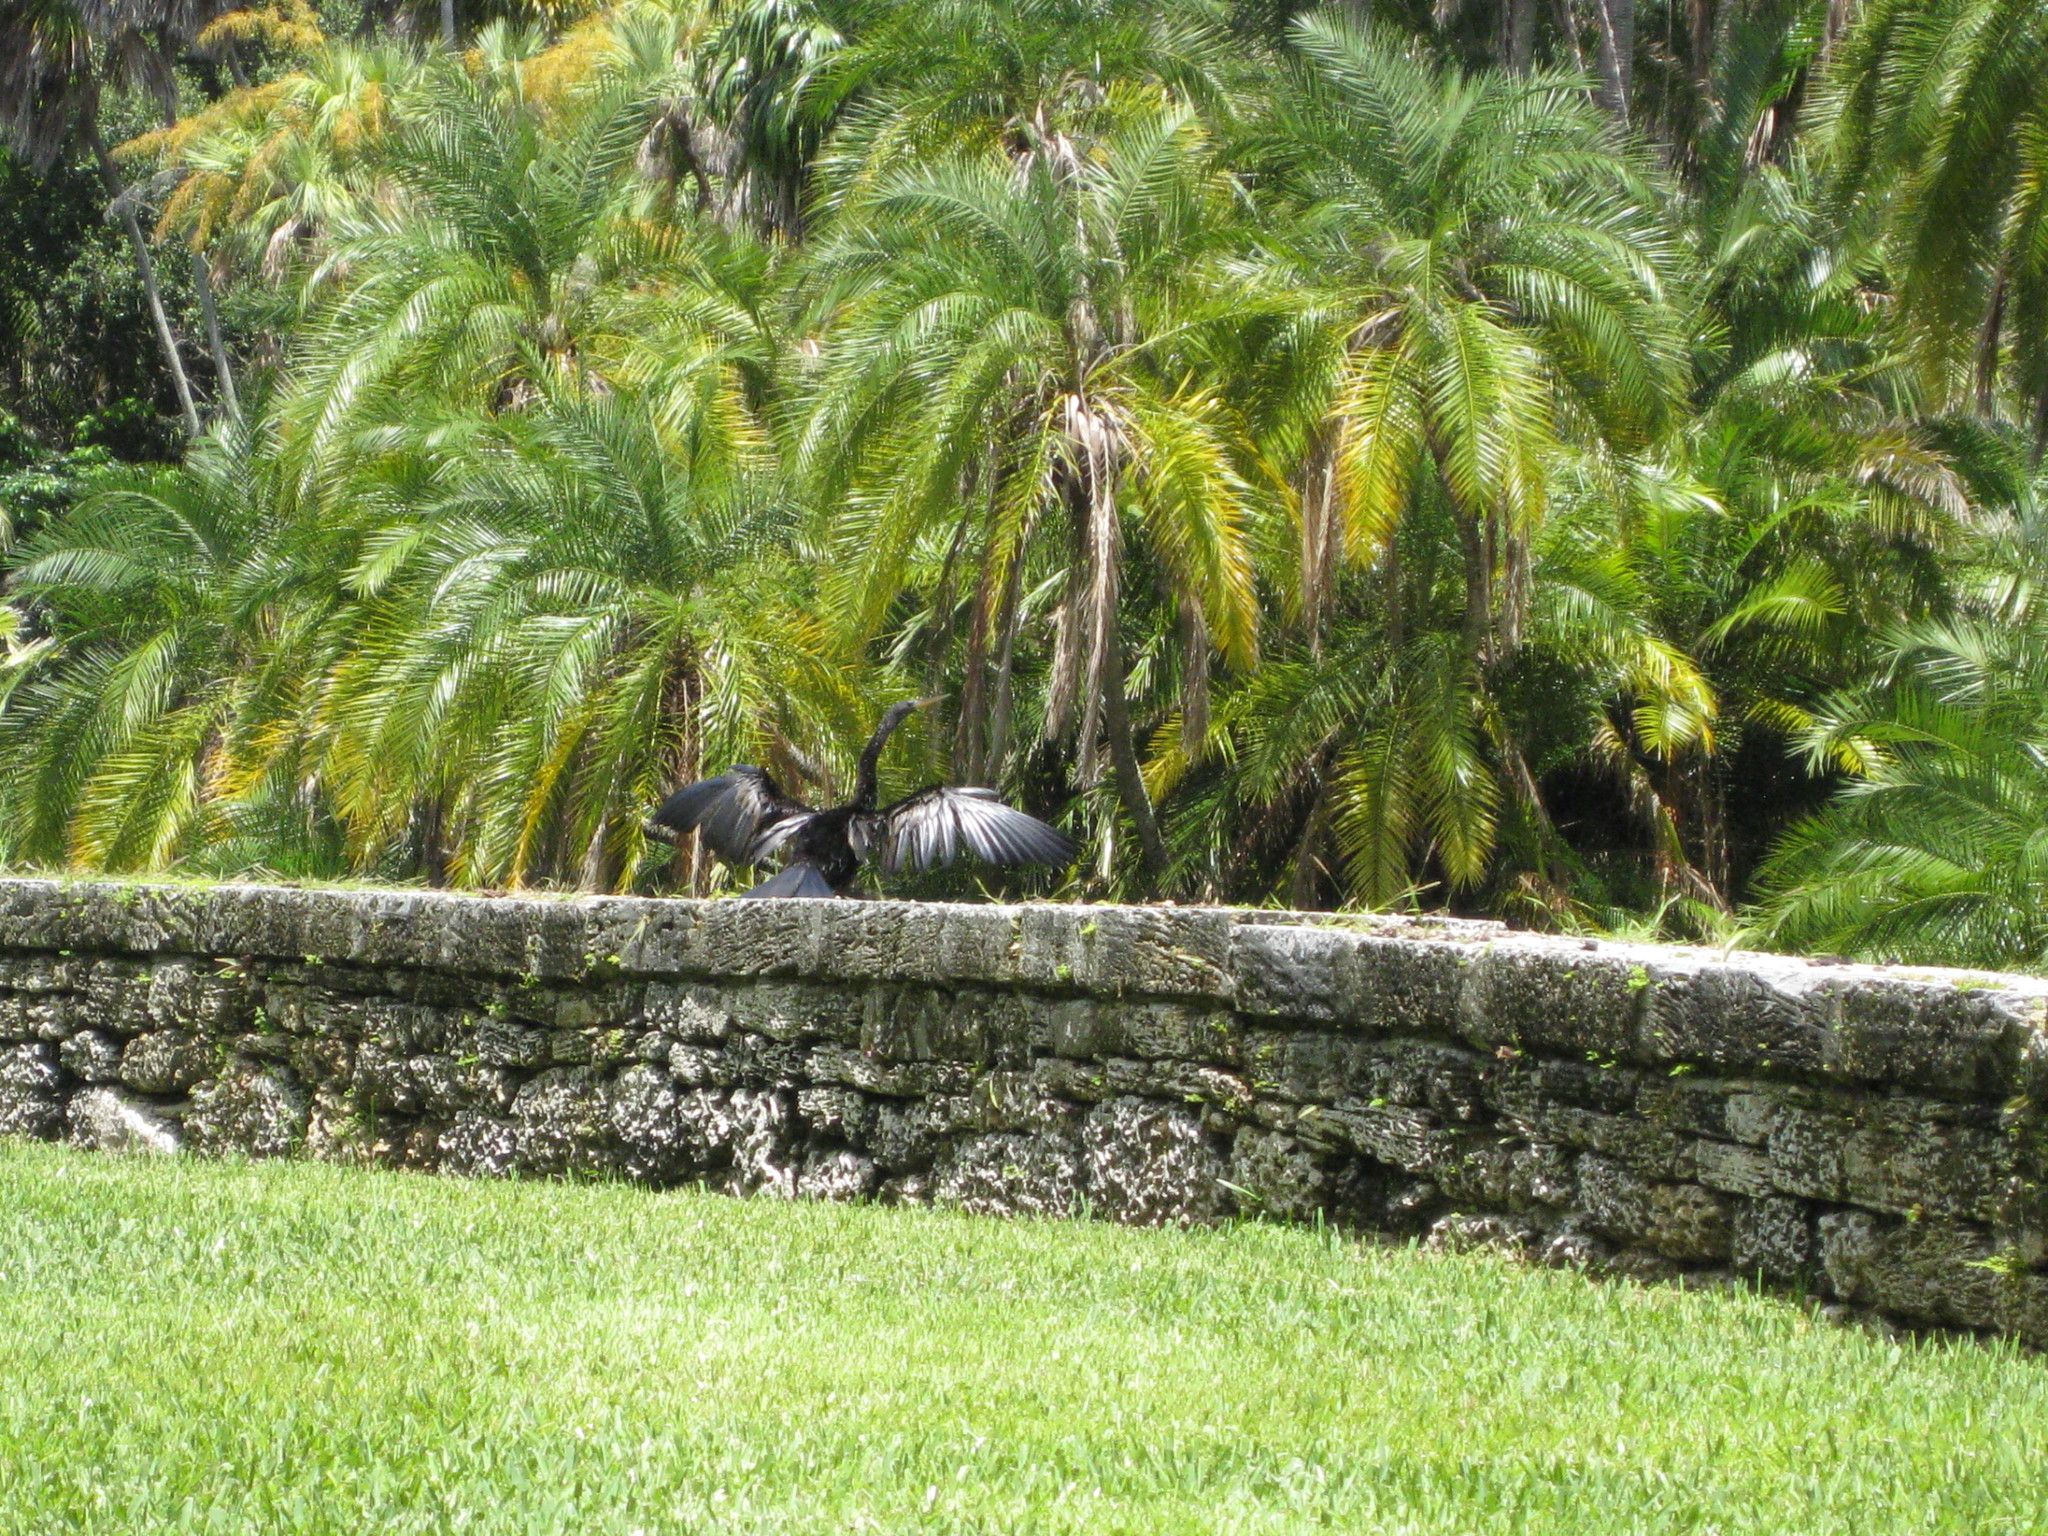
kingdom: Animalia
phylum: Chordata
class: Aves
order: Suliformes
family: Anhingidae
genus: Anhinga
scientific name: Anhinga anhinga
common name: Anhinga
